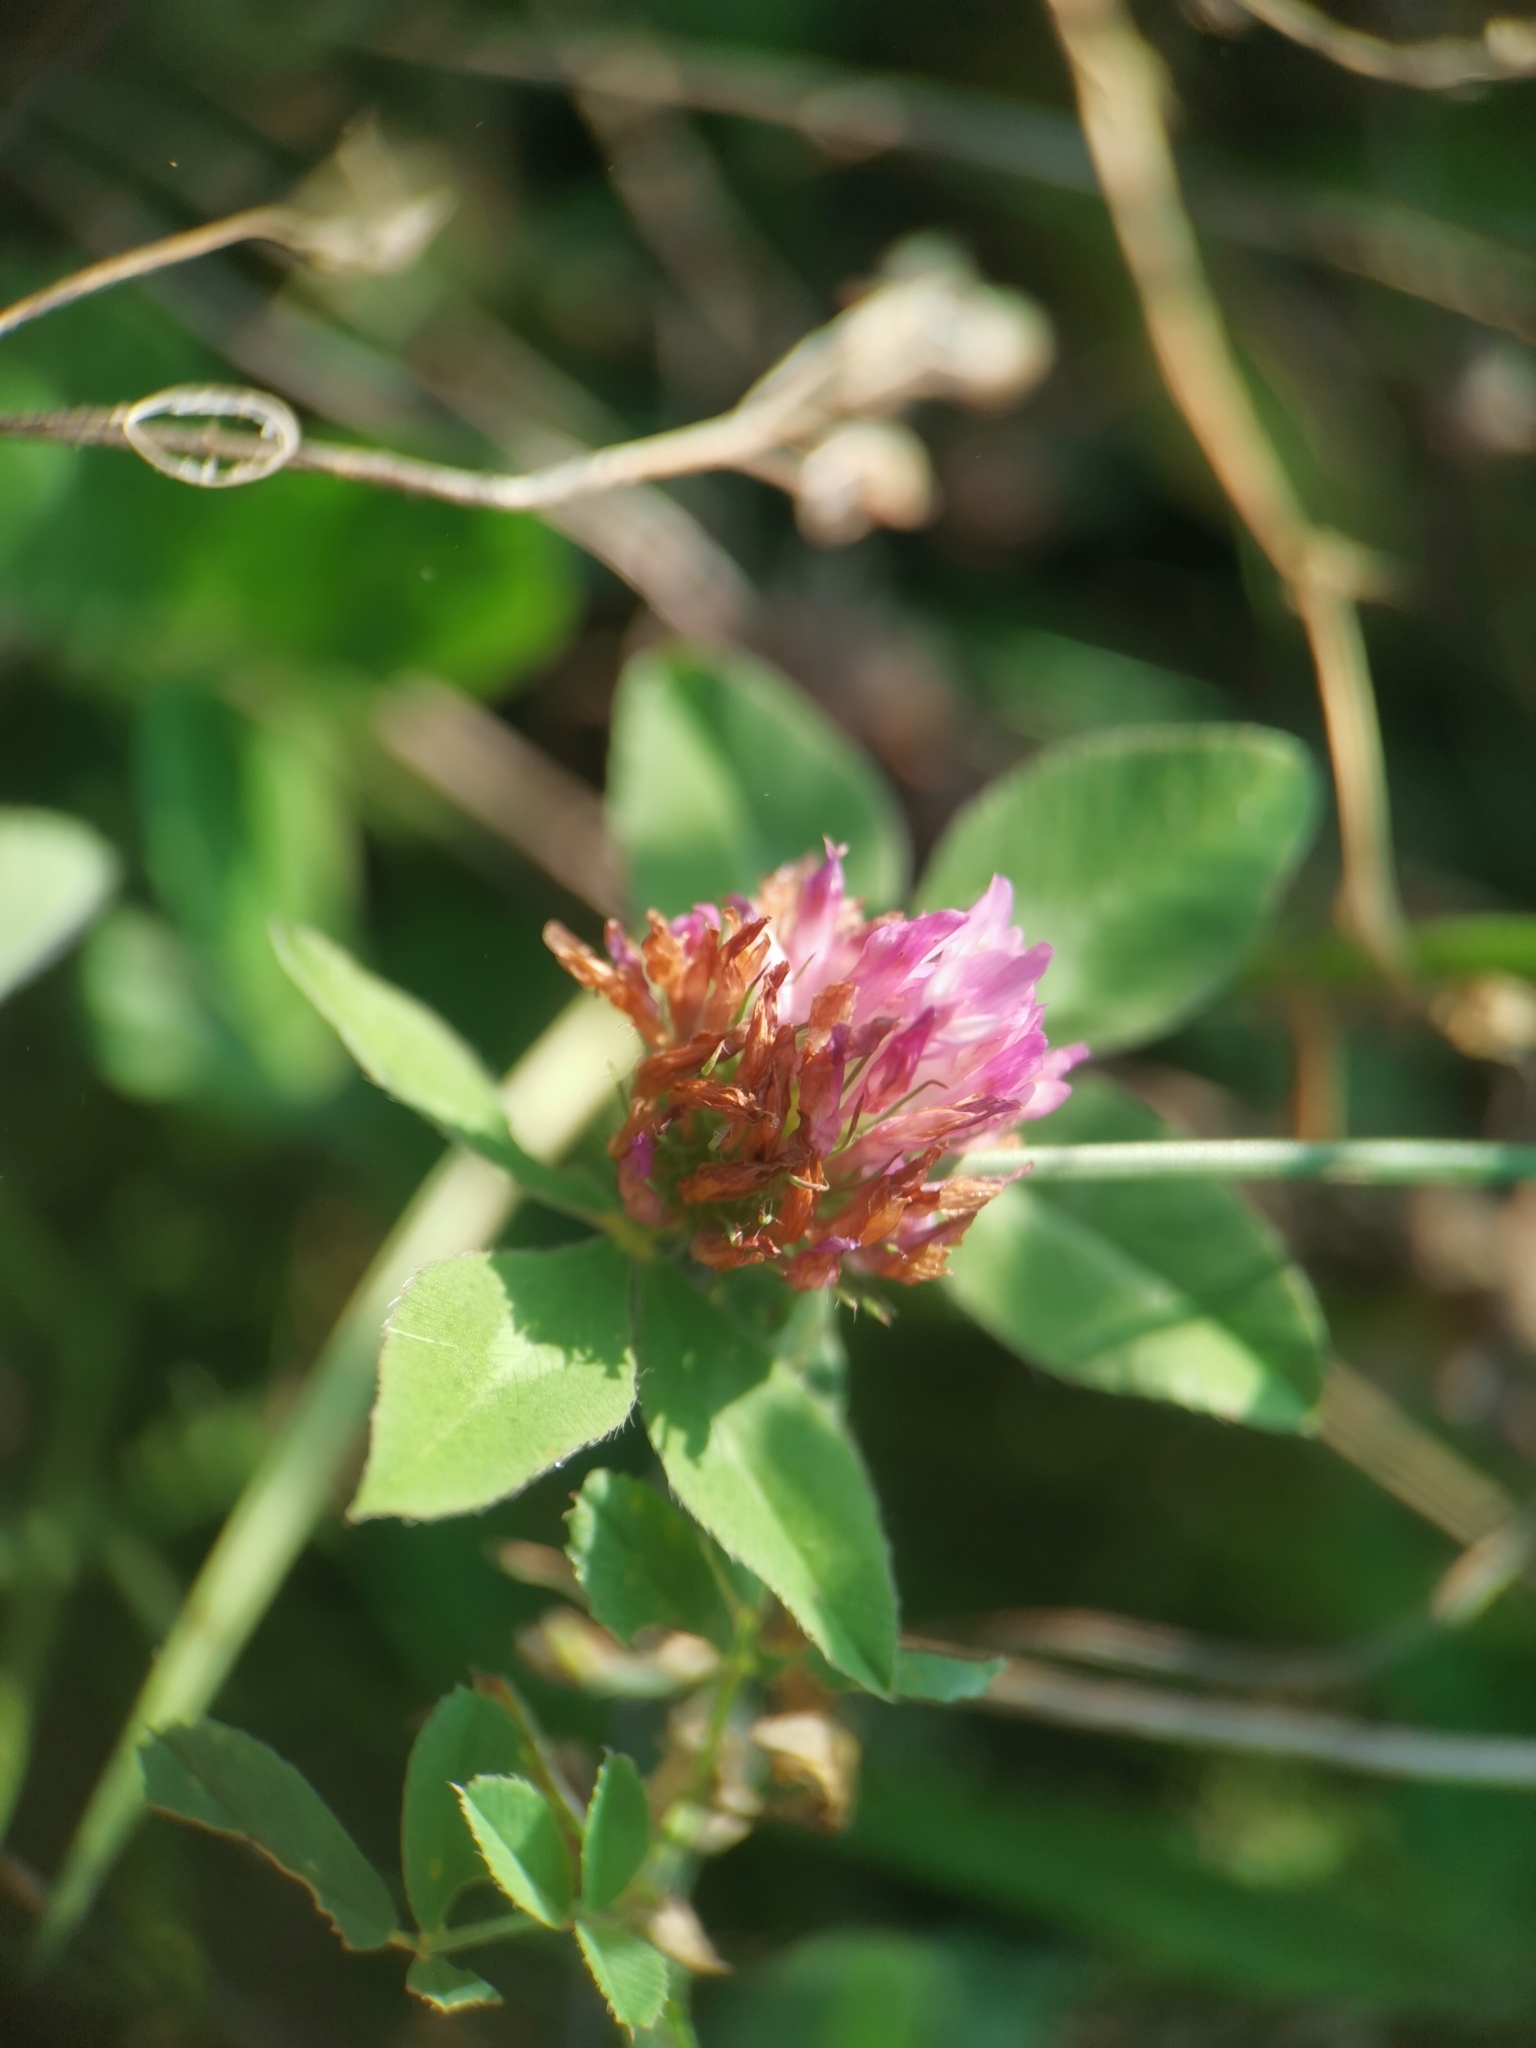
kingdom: Plantae
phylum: Tracheophyta
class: Magnoliopsida
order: Fabales
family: Fabaceae
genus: Trifolium
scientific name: Trifolium pratense
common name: Red clover
